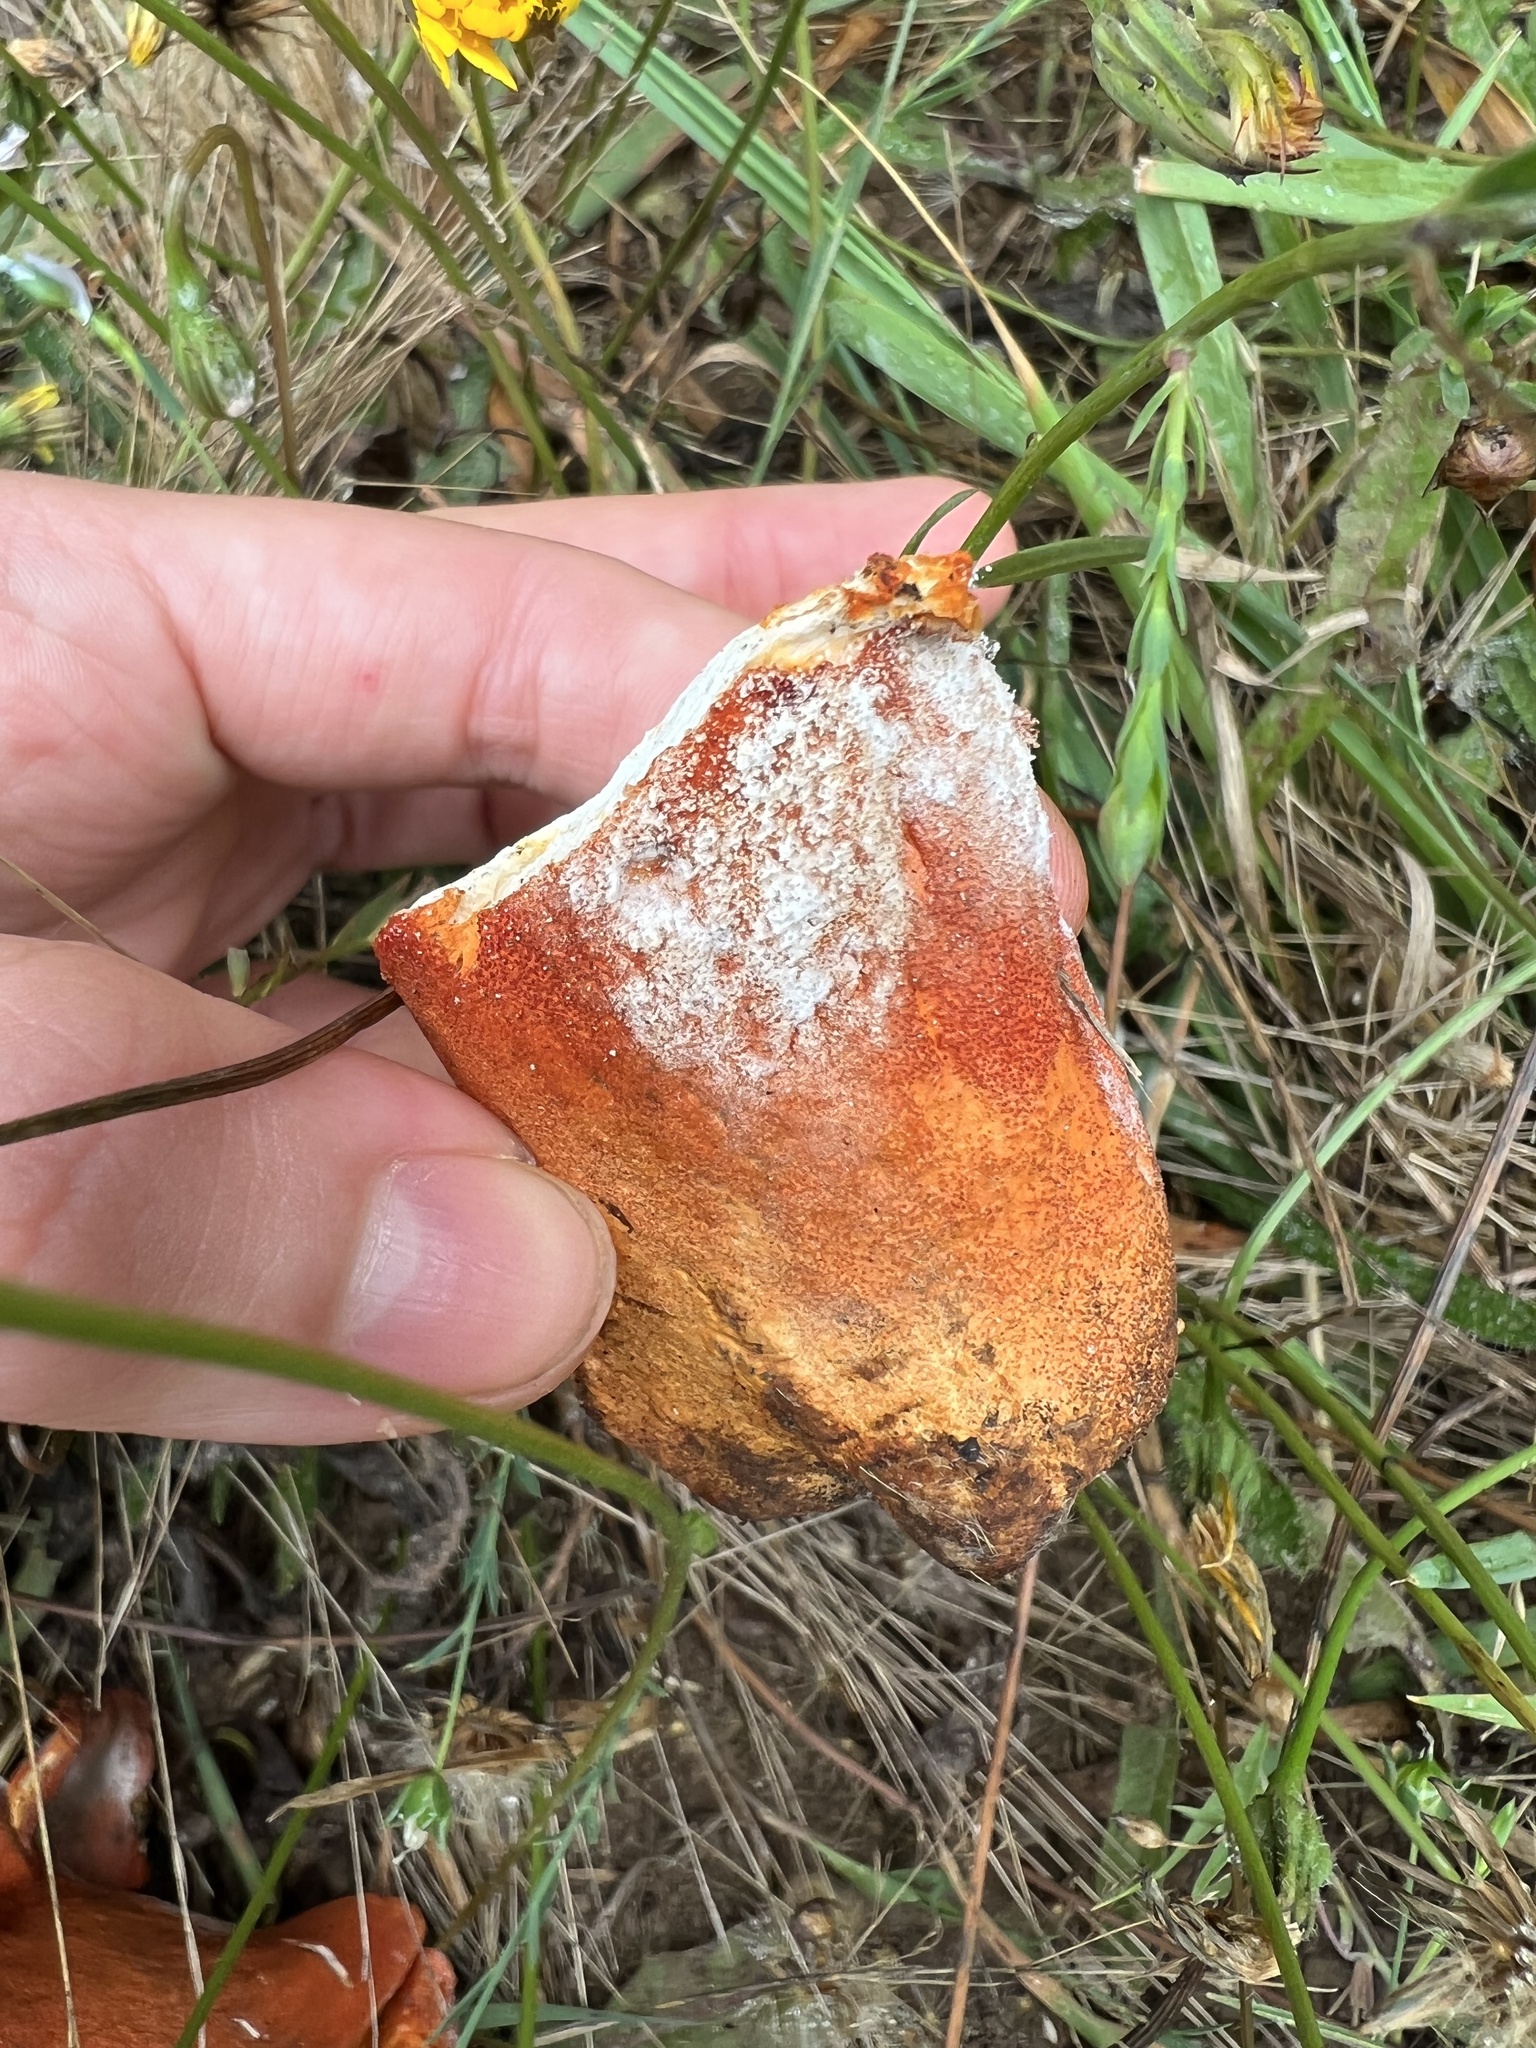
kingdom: Fungi
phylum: Ascomycota
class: Sordariomycetes
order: Hypocreales
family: Hypocreaceae
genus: Hypomyces
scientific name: Hypomyces lactifluorum
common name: Lobster mushroom
